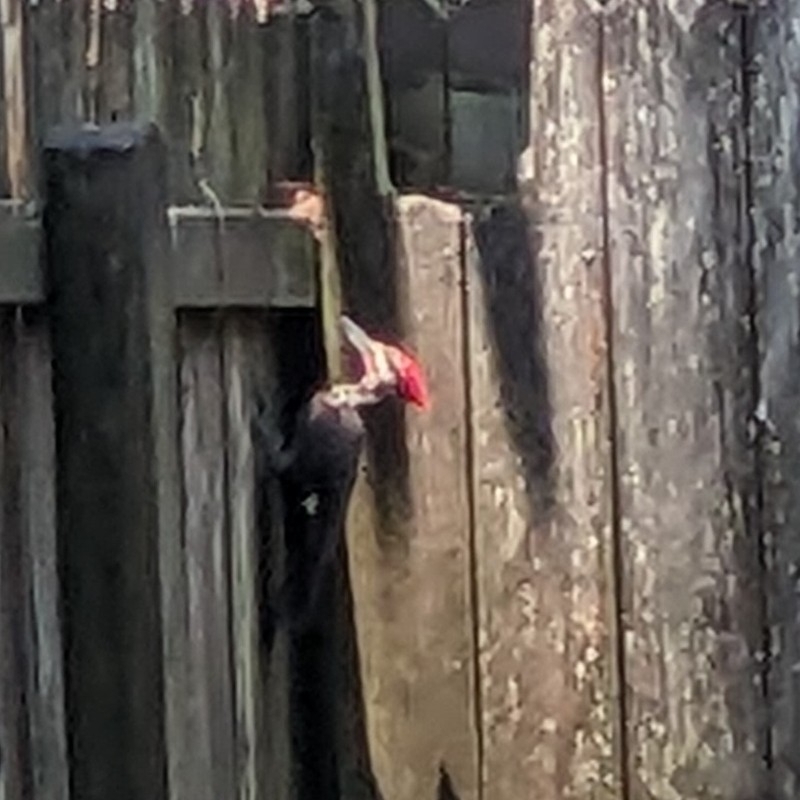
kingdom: Animalia
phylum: Chordata
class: Aves
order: Piciformes
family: Picidae
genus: Dryocopus
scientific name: Dryocopus pileatus
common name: Pileated woodpecker
